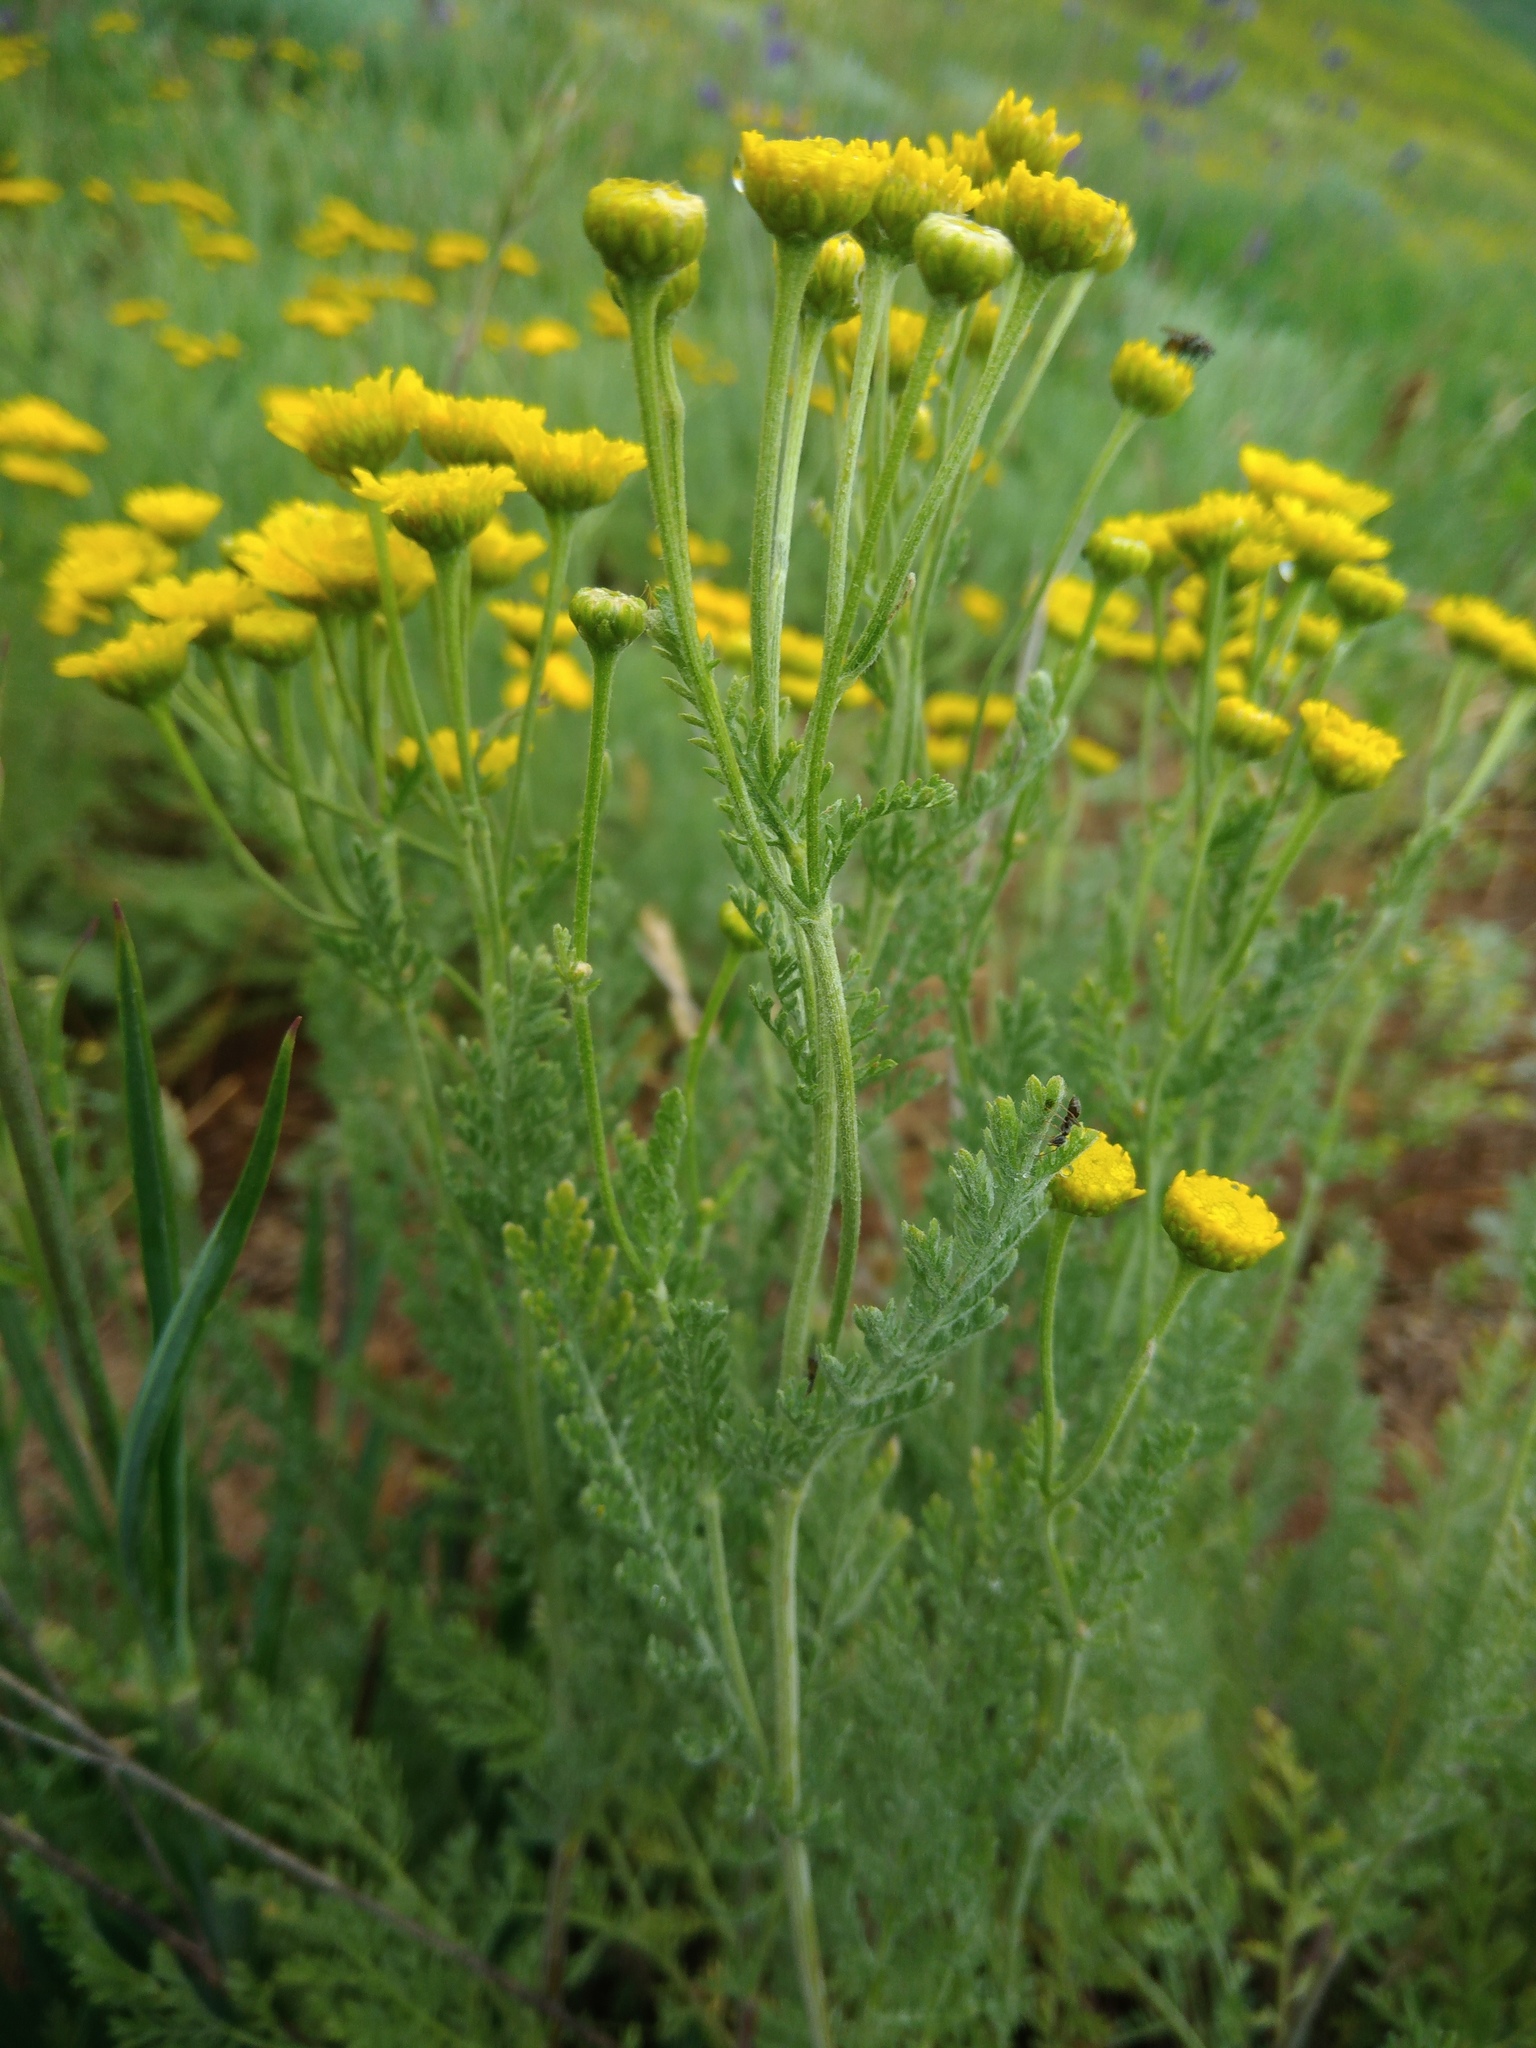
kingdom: Plantae
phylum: Tracheophyta
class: Magnoliopsida
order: Asterales
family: Asteraceae
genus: Tanacetum
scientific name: Tanacetum millefolium
